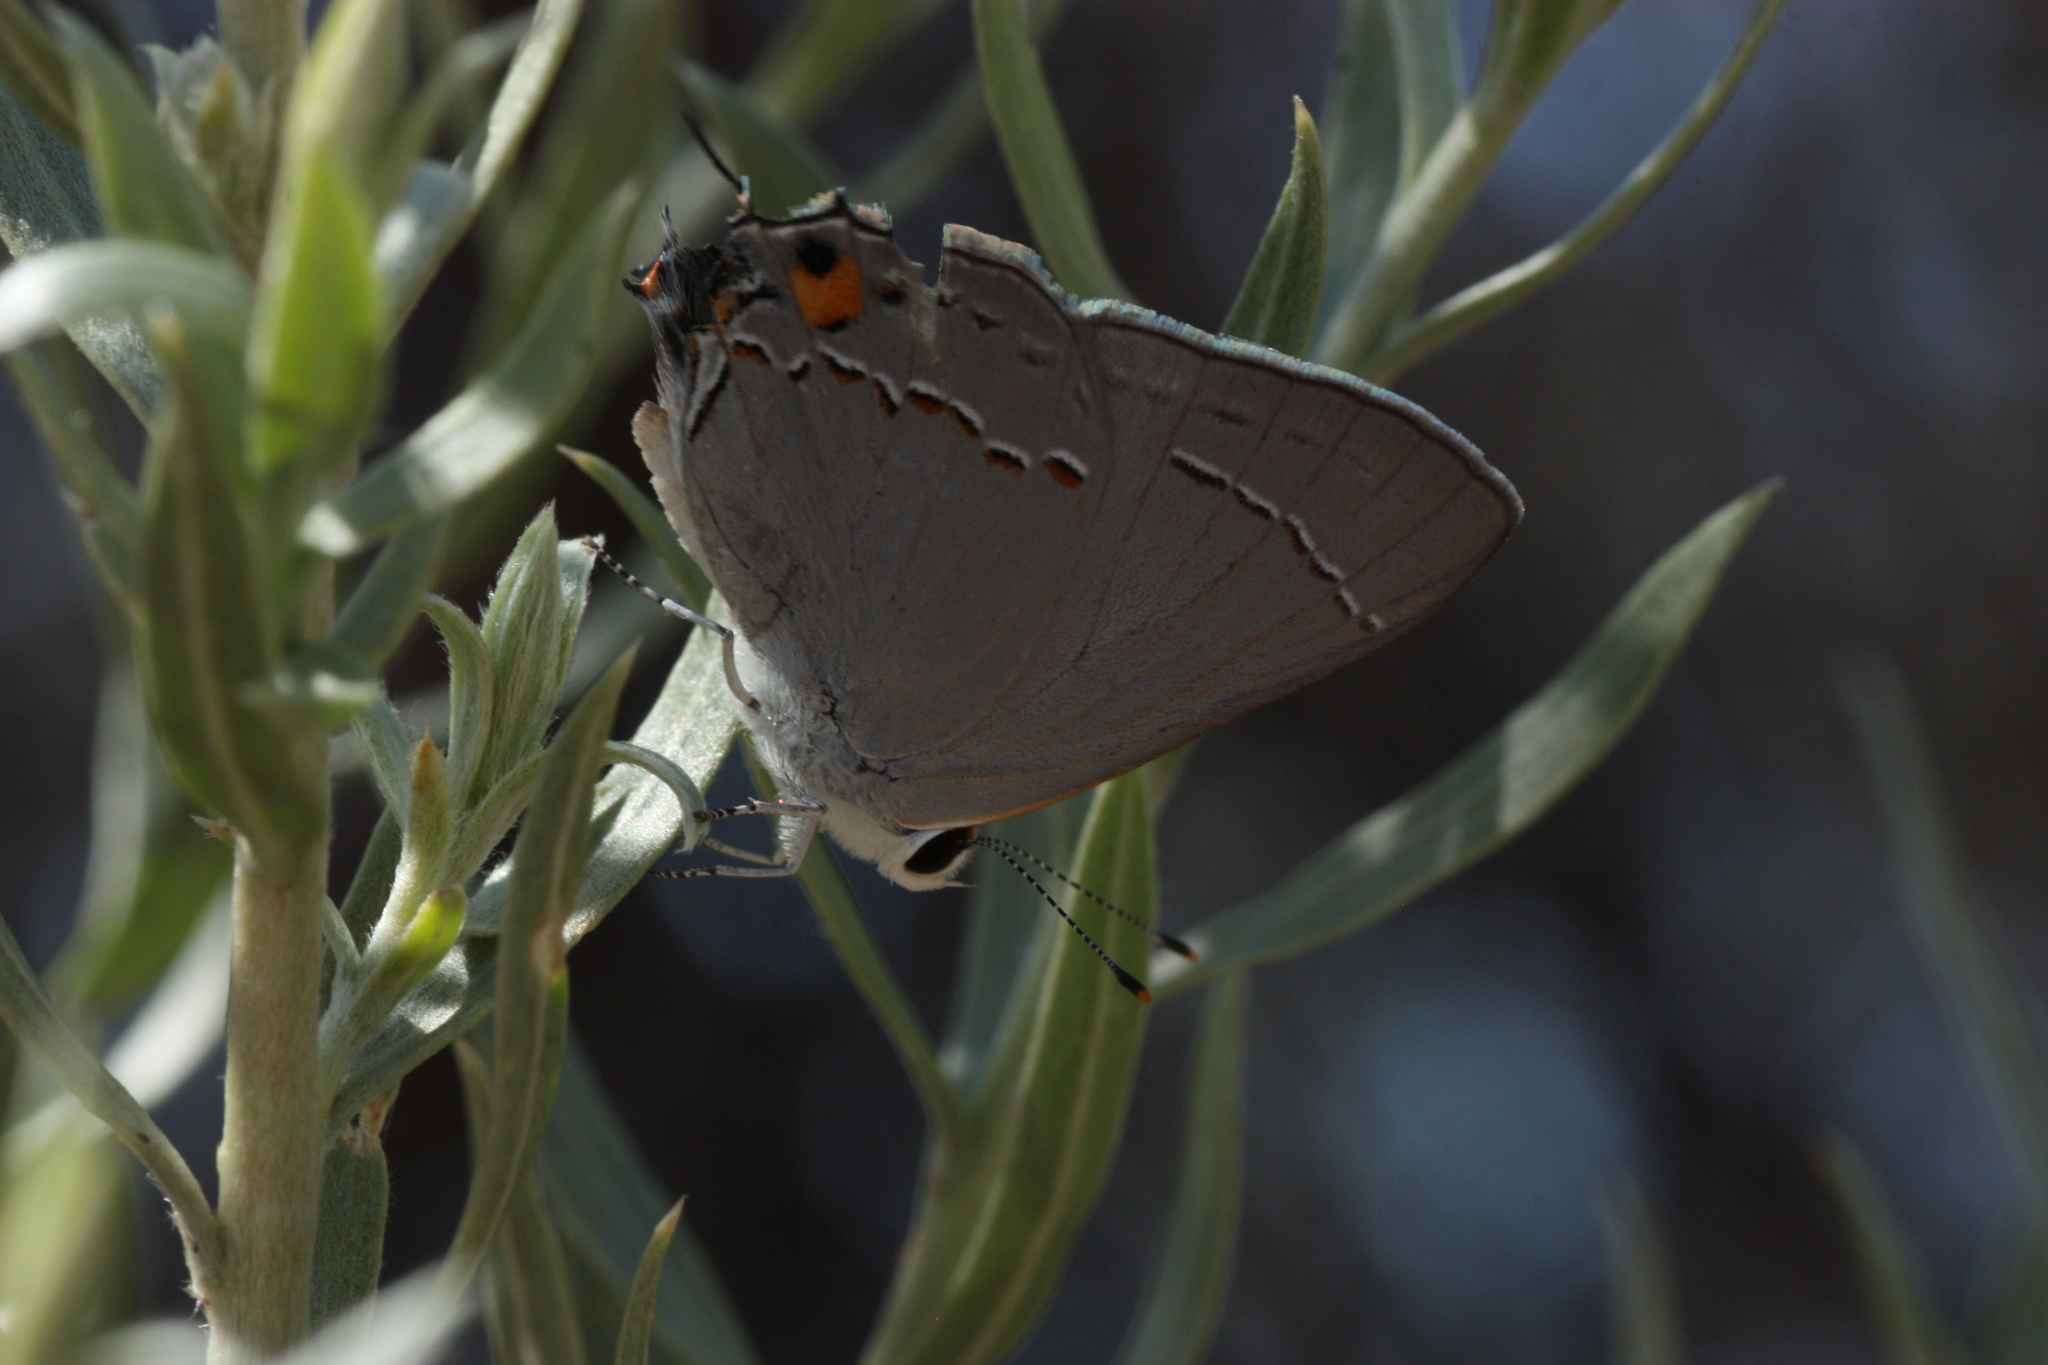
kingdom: Animalia
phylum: Arthropoda
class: Insecta
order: Lepidoptera
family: Lycaenidae
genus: Strymon
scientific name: Strymon melinus
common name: Gray hairstreak
